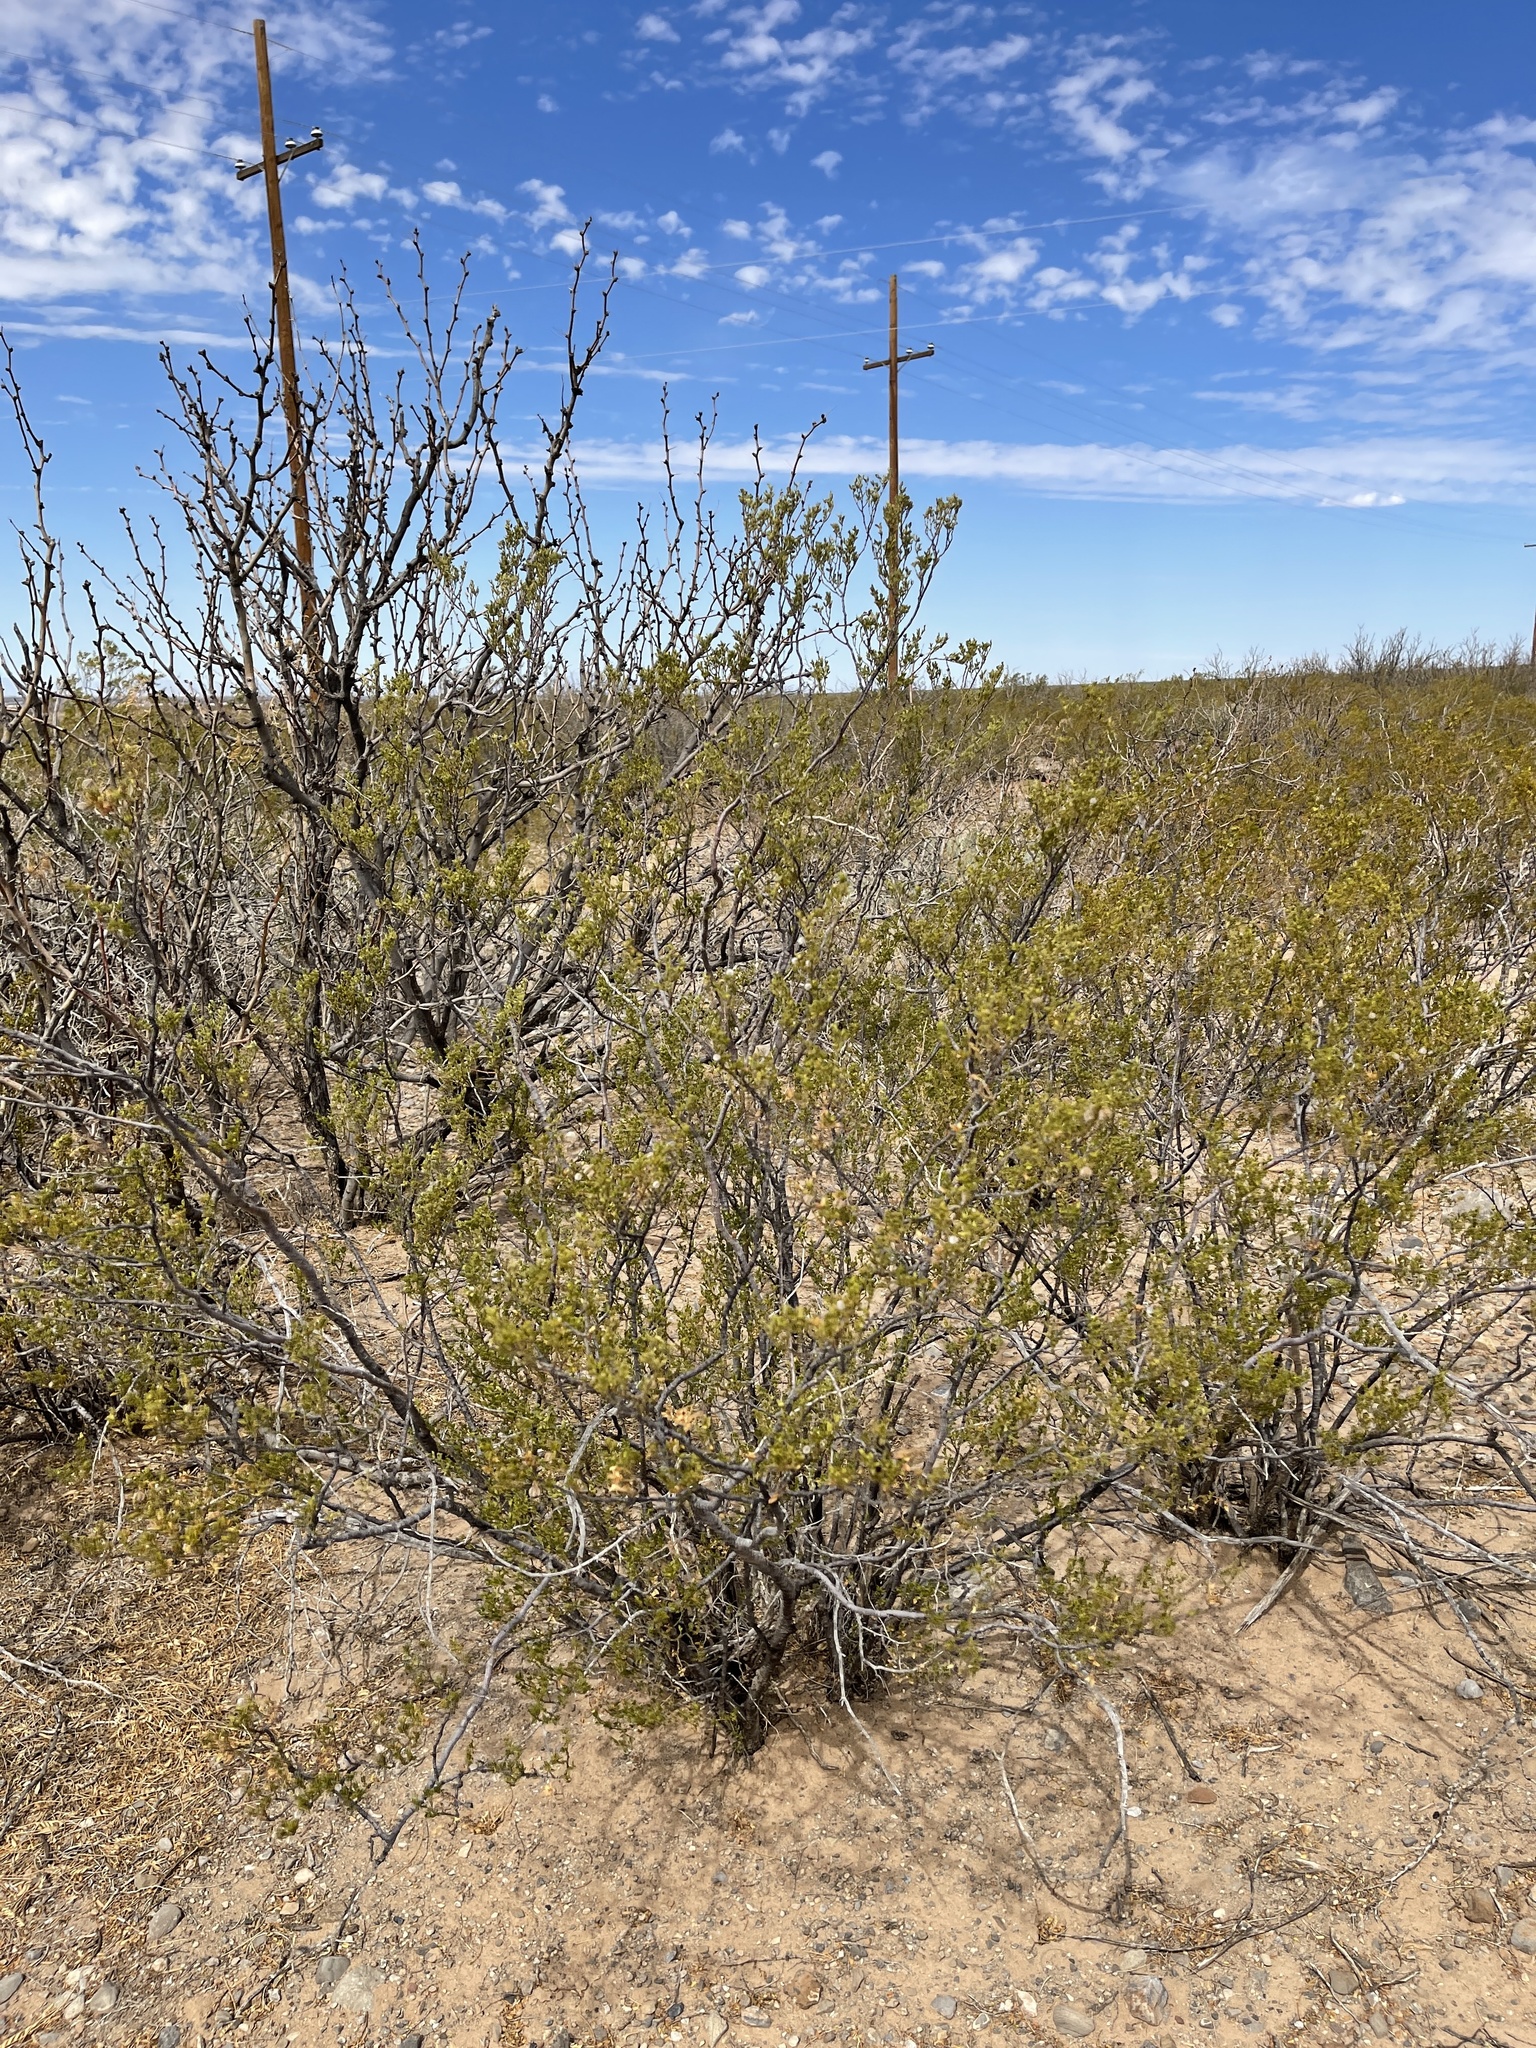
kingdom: Plantae
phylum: Tracheophyta
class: Magnoliopsida
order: Zygophyllales
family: Zygophyllaceae
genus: Larrea
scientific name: Larrea tridentata
